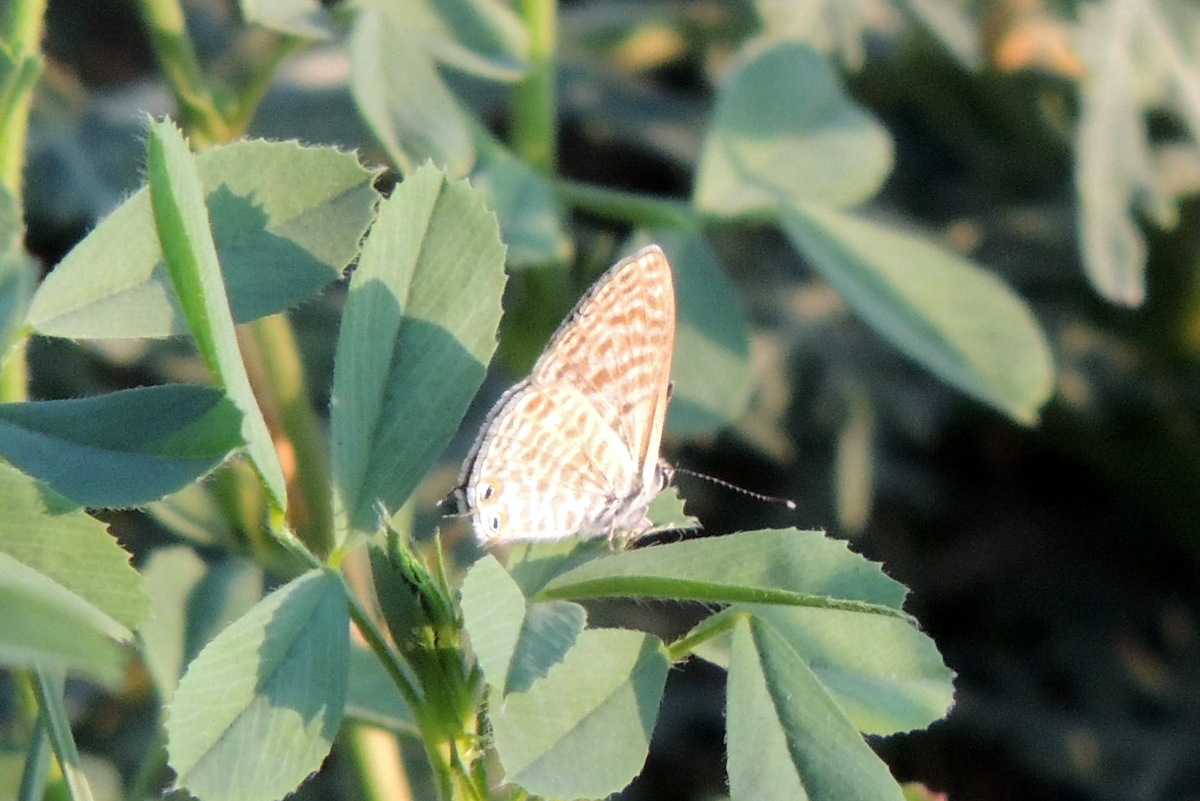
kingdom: Animalia
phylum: Arthropoda
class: Insecta
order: Lepidoptera
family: Lycaenidae
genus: Leptotes
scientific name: Leptotes pirithous
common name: Lang's short-tailed blue
